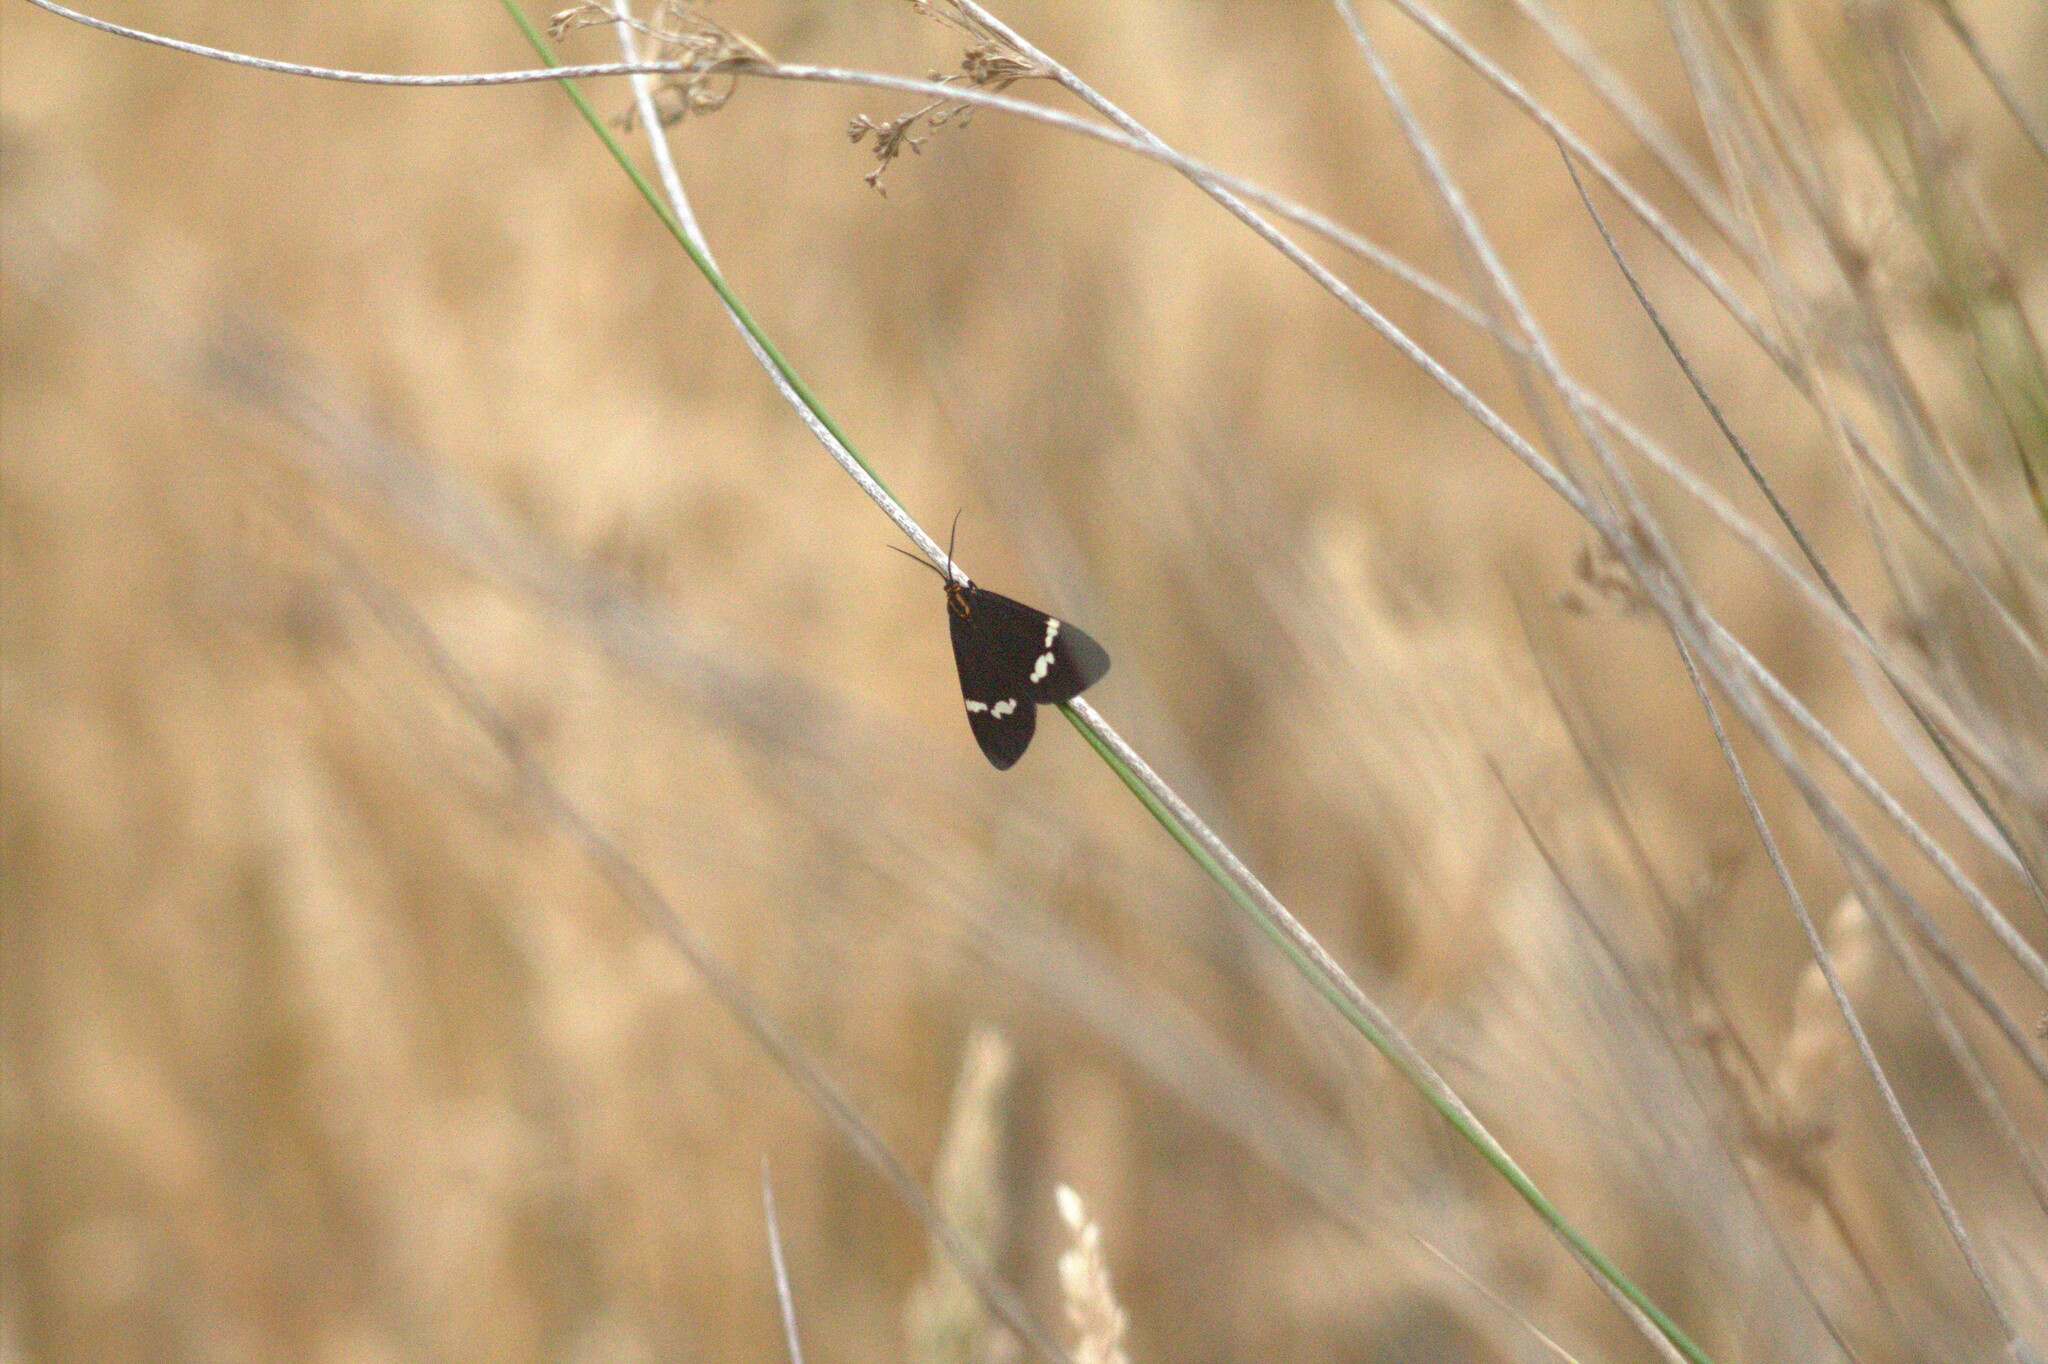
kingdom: Animalia
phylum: Arthropoda
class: Insecta
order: Lepidoptera
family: Erebidae
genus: Nyctemera
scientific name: Nyctemera annulatum
